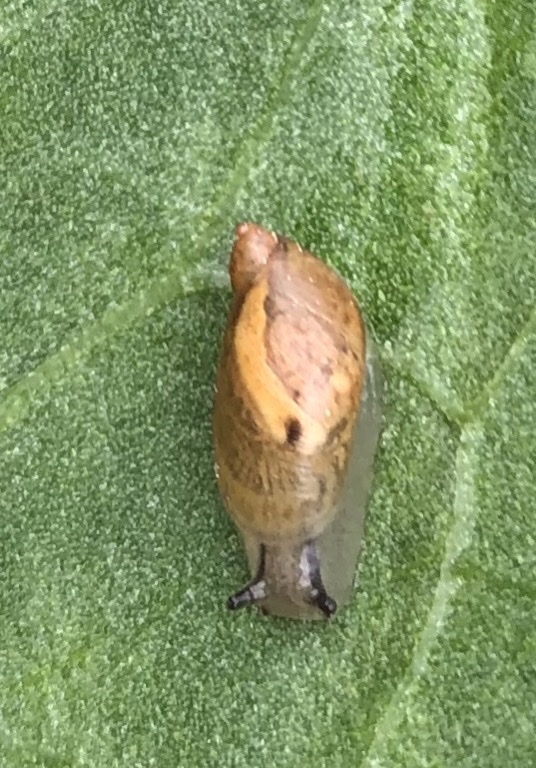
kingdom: Animalia
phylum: Mollusca
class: Gastropoda
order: Stylommatophora
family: Succineidae
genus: Succinea
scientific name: Succinea putris
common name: European ambersnail
